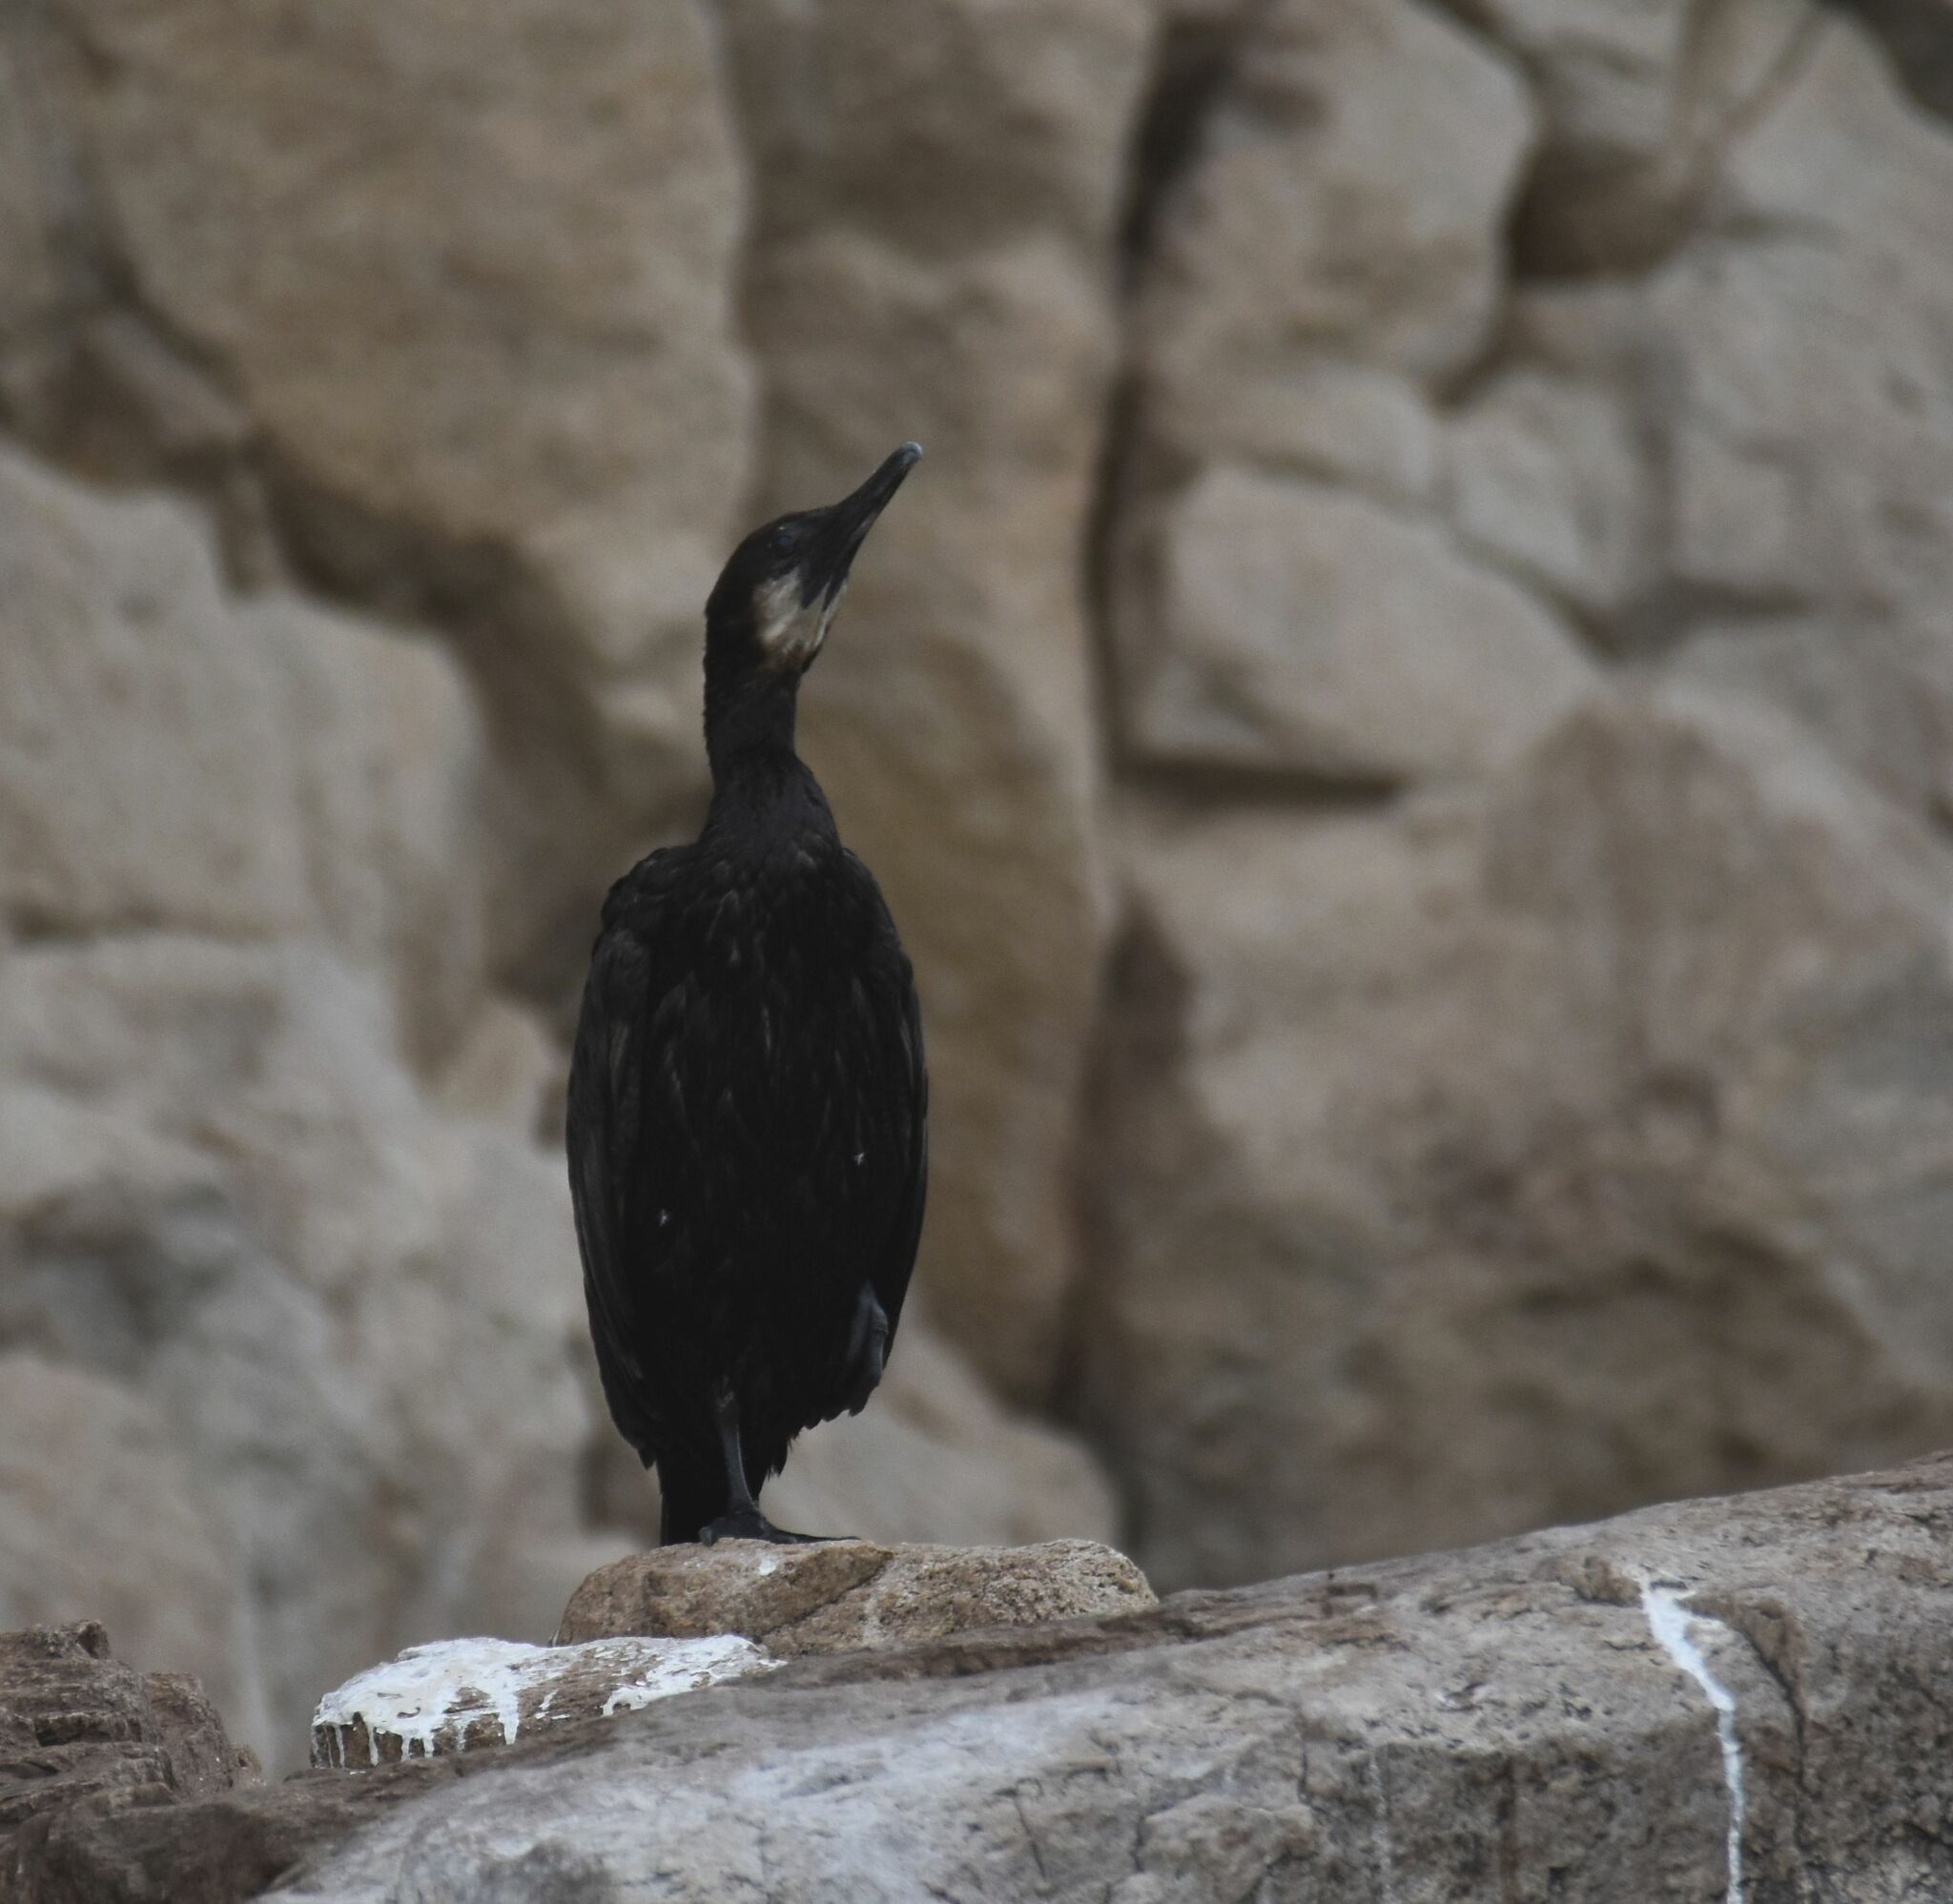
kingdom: Animalia
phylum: Chordata
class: Aves
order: Suliformes
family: Phalacrocoracidae
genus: Urile
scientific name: Urile penicillatus
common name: Brandt's cormorant
